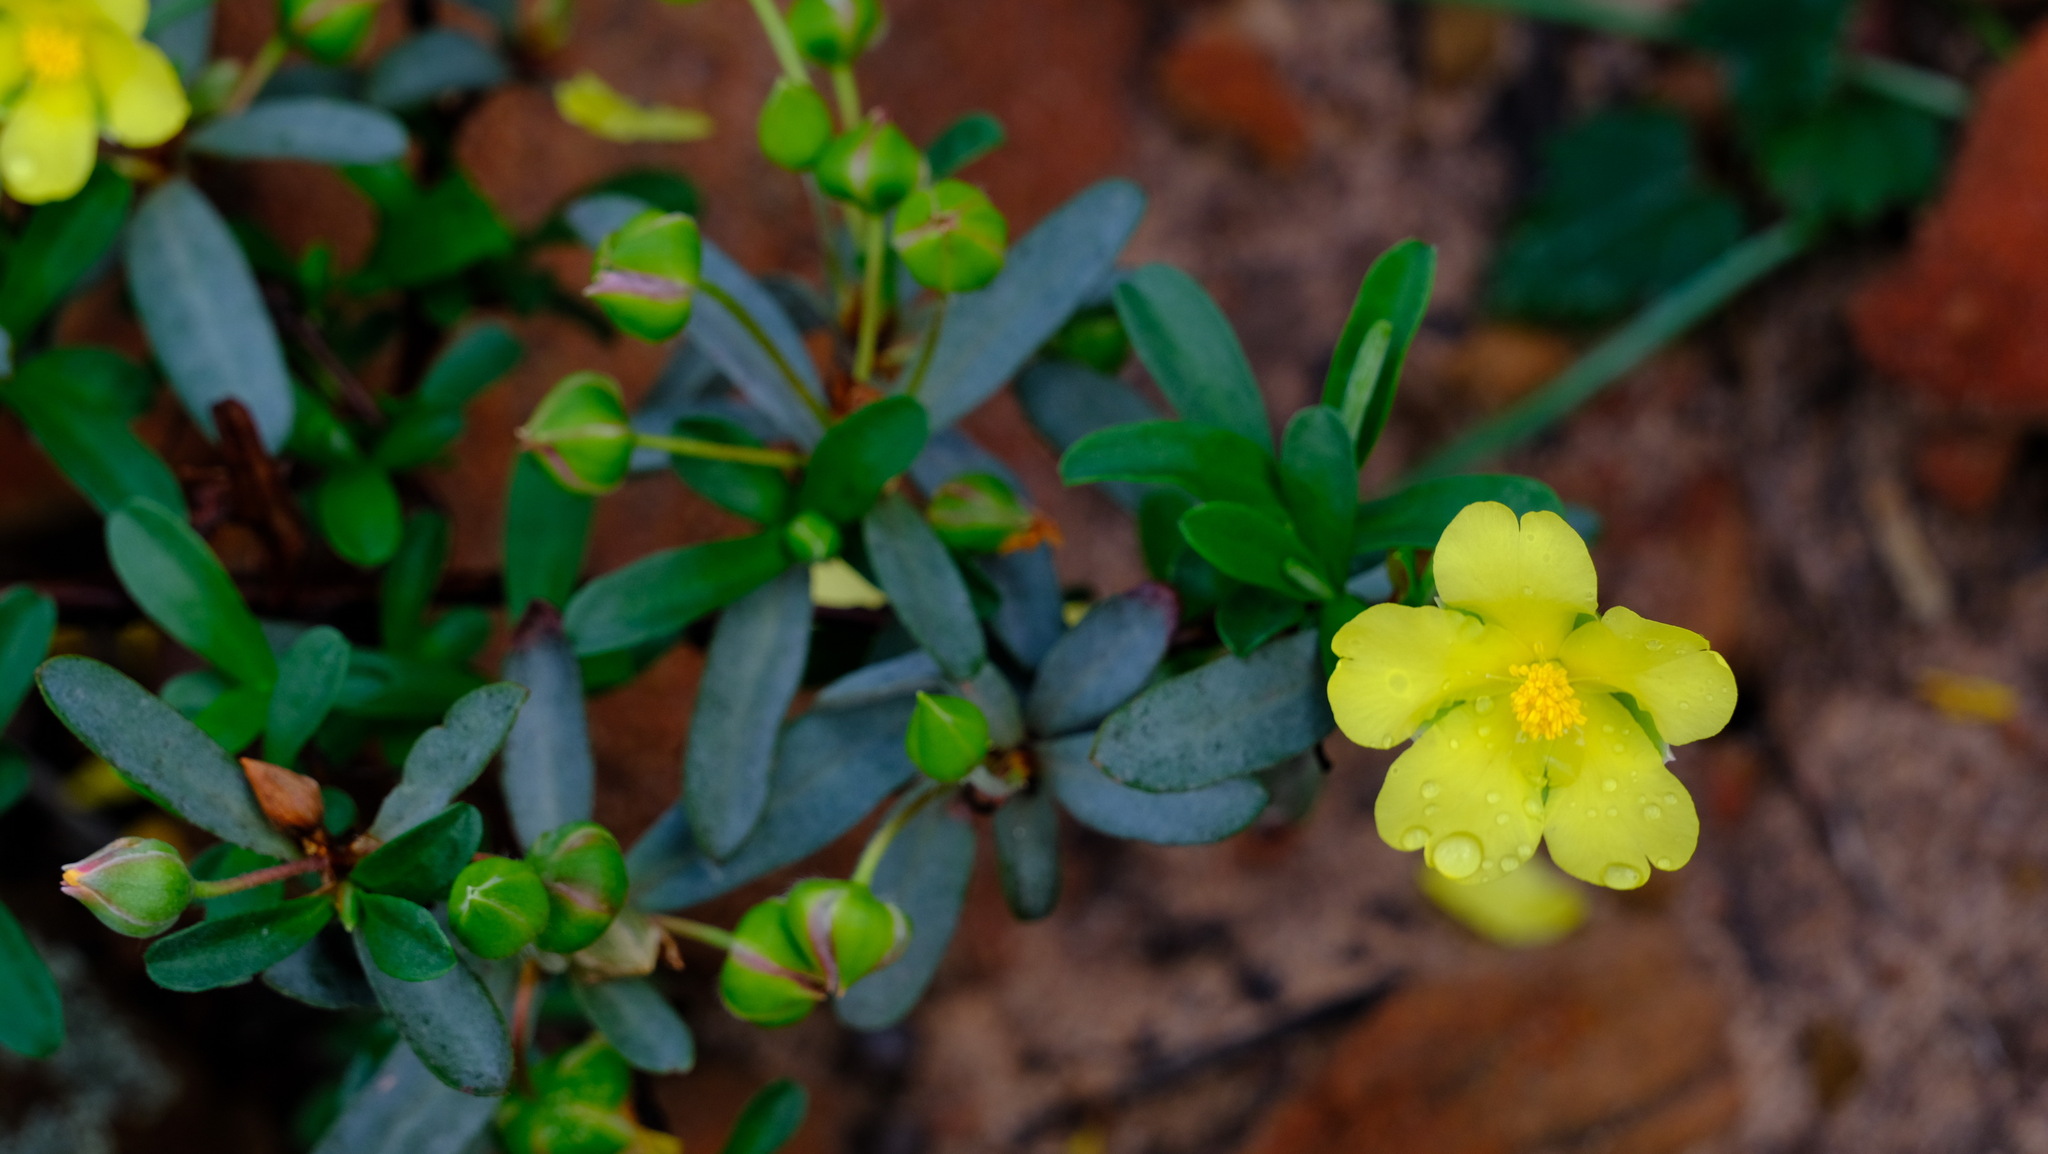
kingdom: Plantae
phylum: Tracheophyta
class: Magnoliopsida
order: Dilleniales
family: Dilleniaceae
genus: Hibbertia
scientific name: Hibbertia potentilliflora
